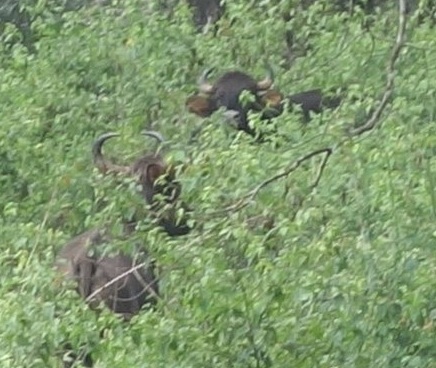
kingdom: Animalia
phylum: Chordata
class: Mammalia
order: Artiodactyla
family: Bovidae
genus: Bos
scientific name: Bos frontalis
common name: Gaur
